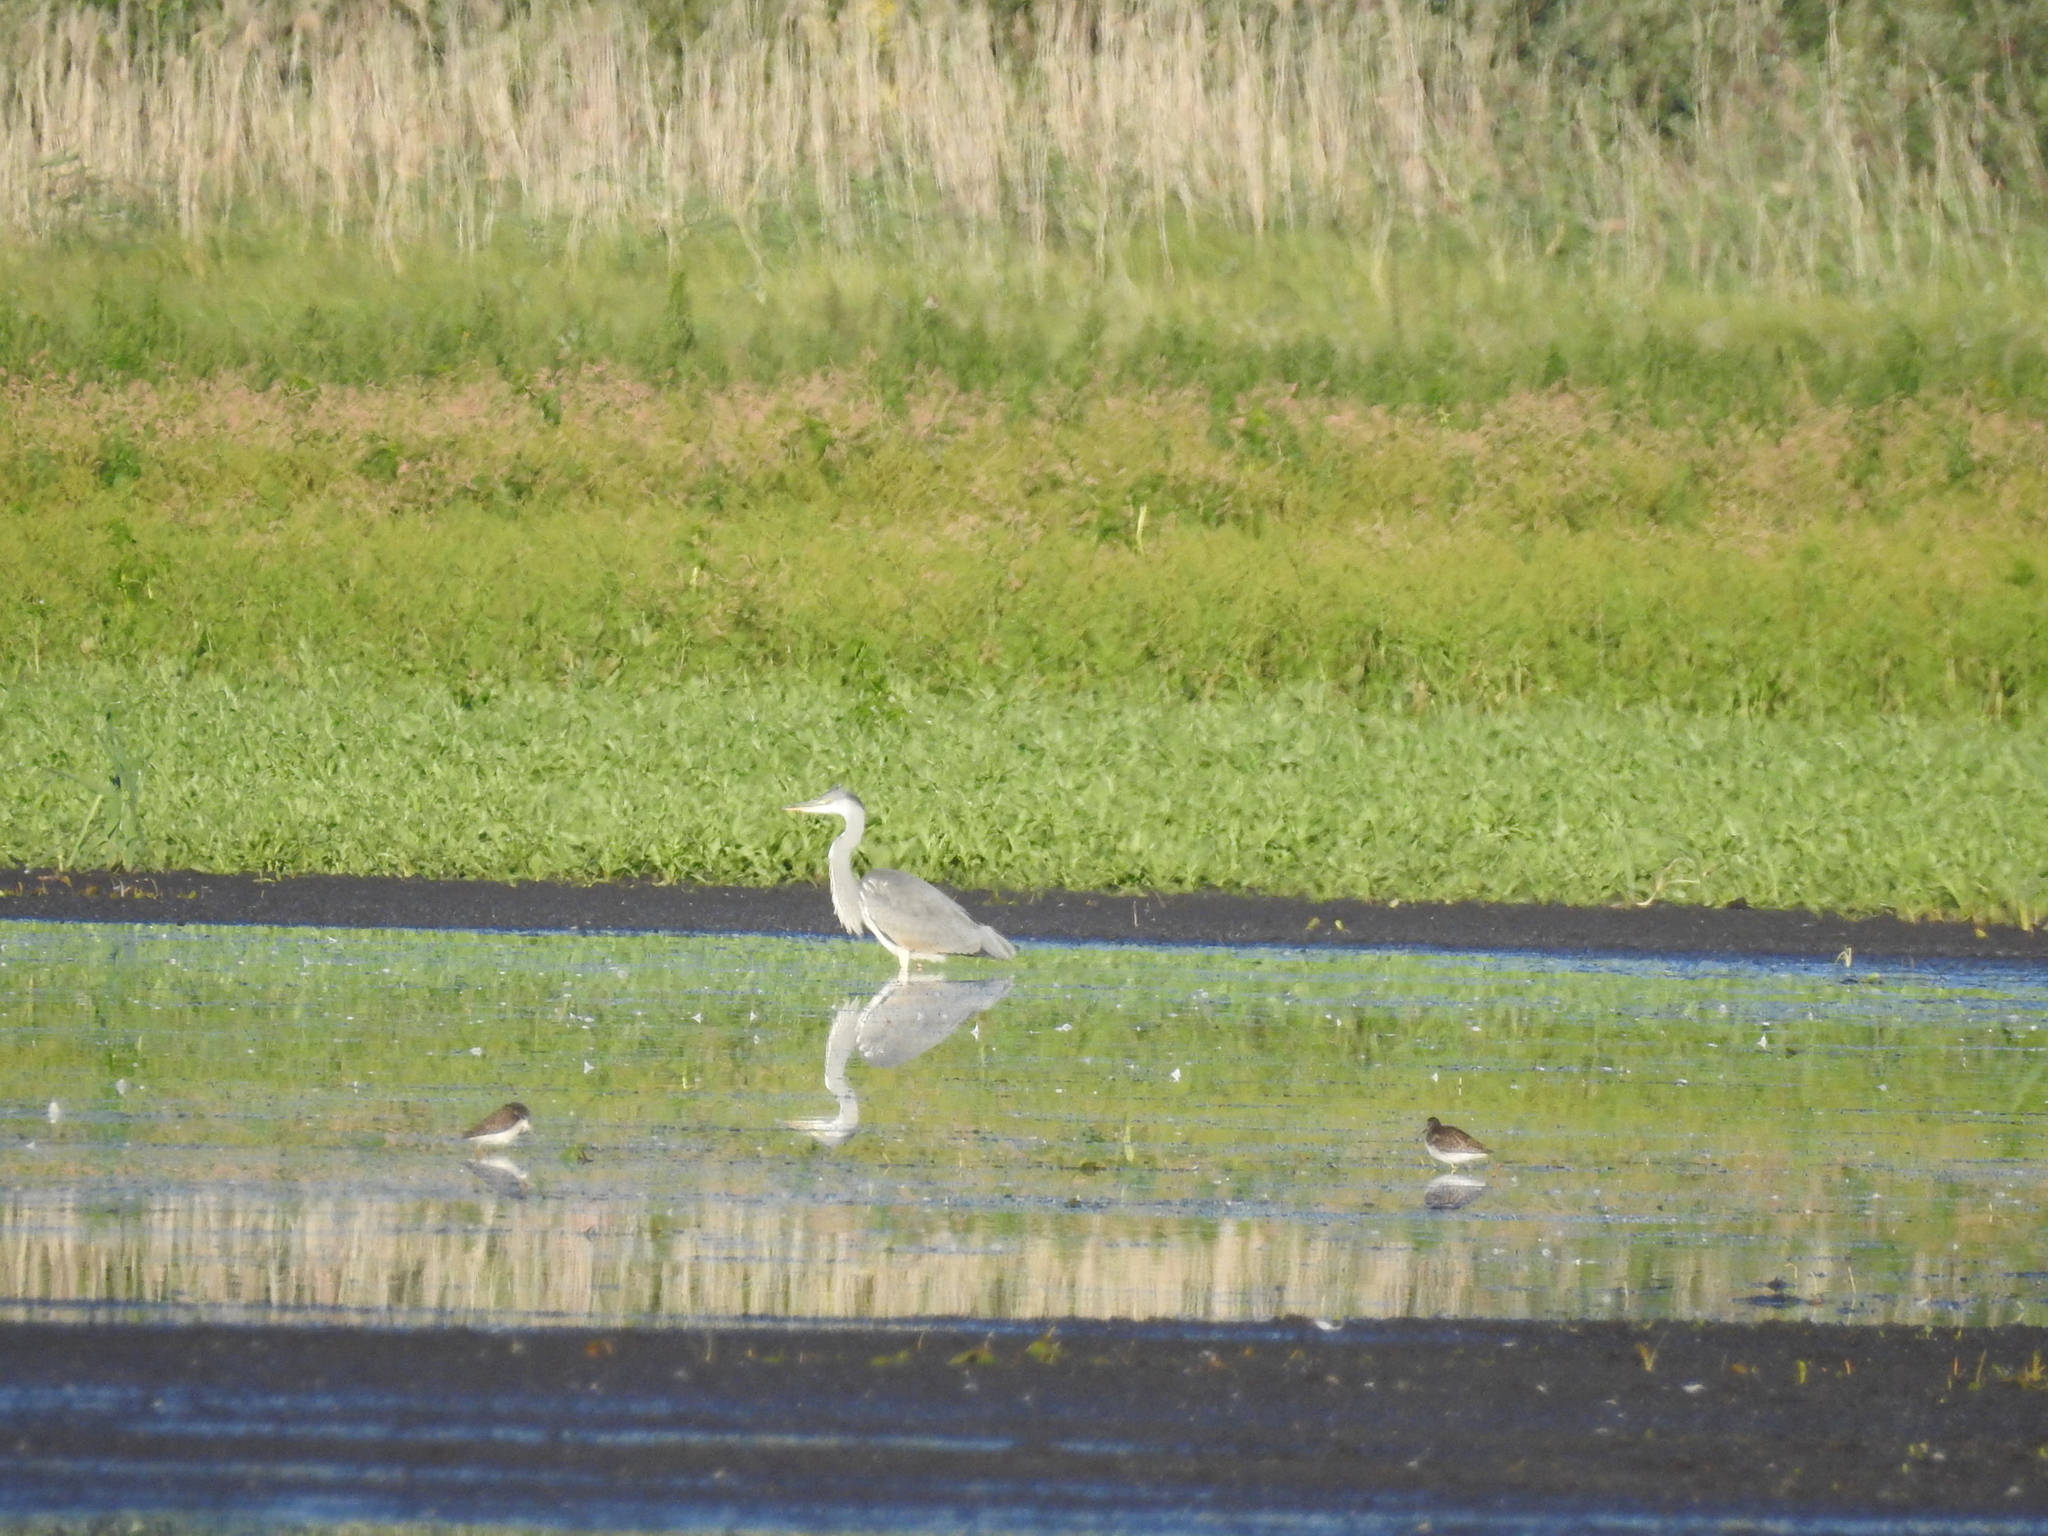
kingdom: Animalia
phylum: Chordata
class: Aves
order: Pelecaniformes
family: Ardeidae
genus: Ardea
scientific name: Ardea cinerea
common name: Grey heron
